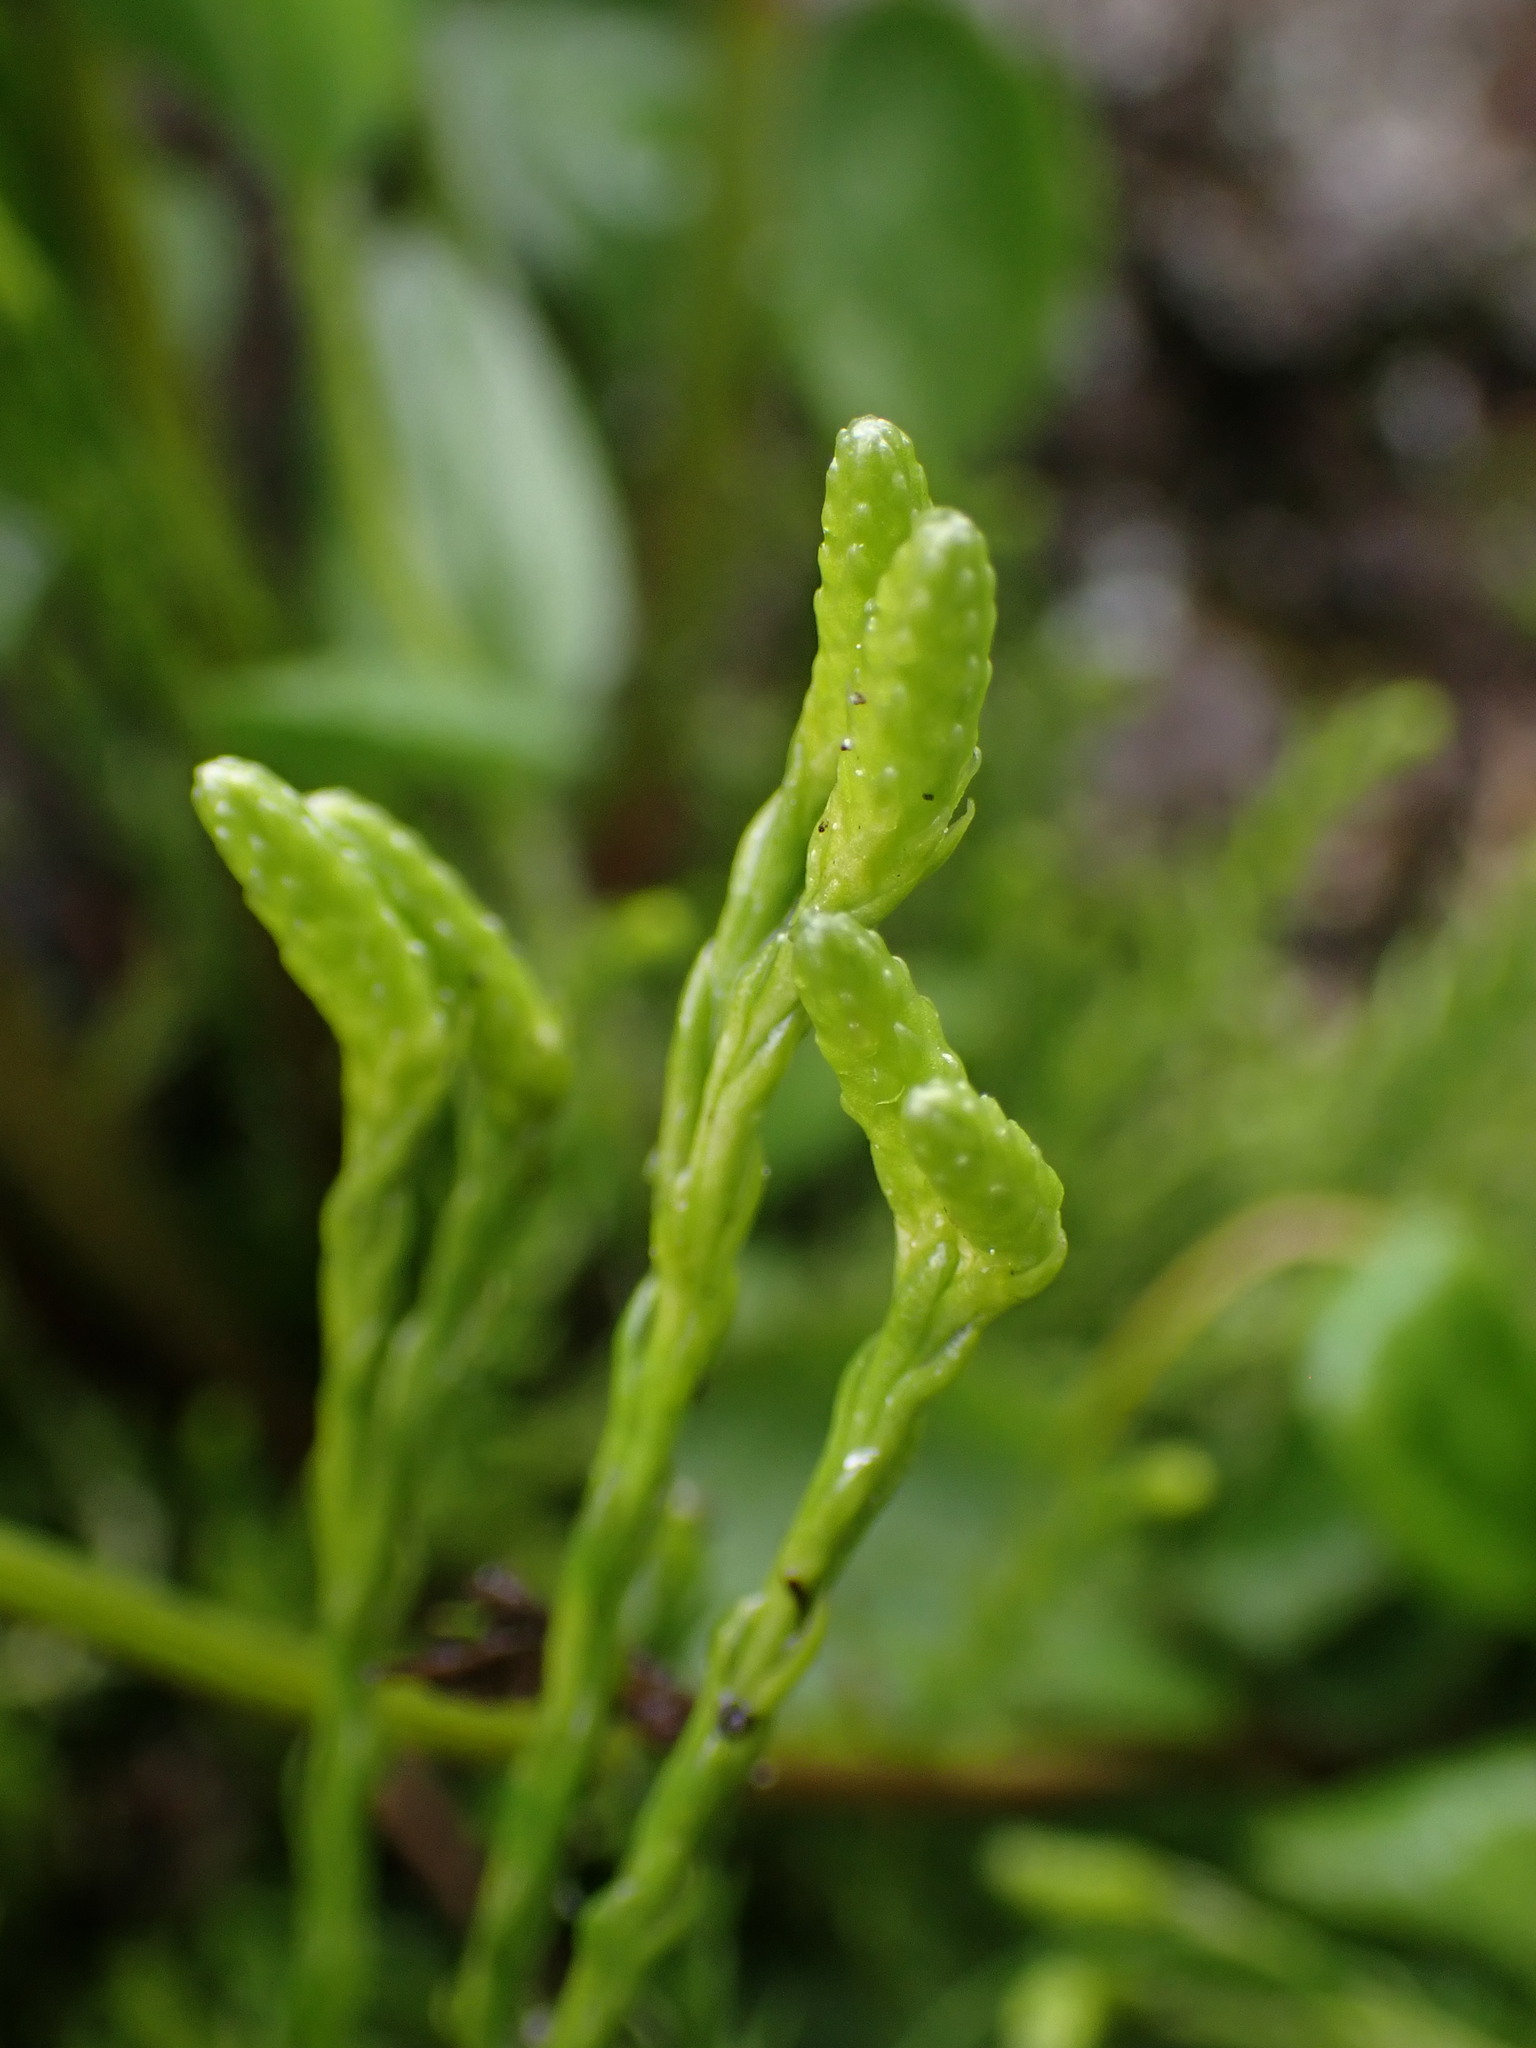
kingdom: Plantae
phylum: Tracheophyta
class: Lycopodiopsida
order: Lycopodiales
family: Lycopodiaceae
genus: Diphasiastrum
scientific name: Diphasiastrum sitchense
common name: Alaska clubmoss
